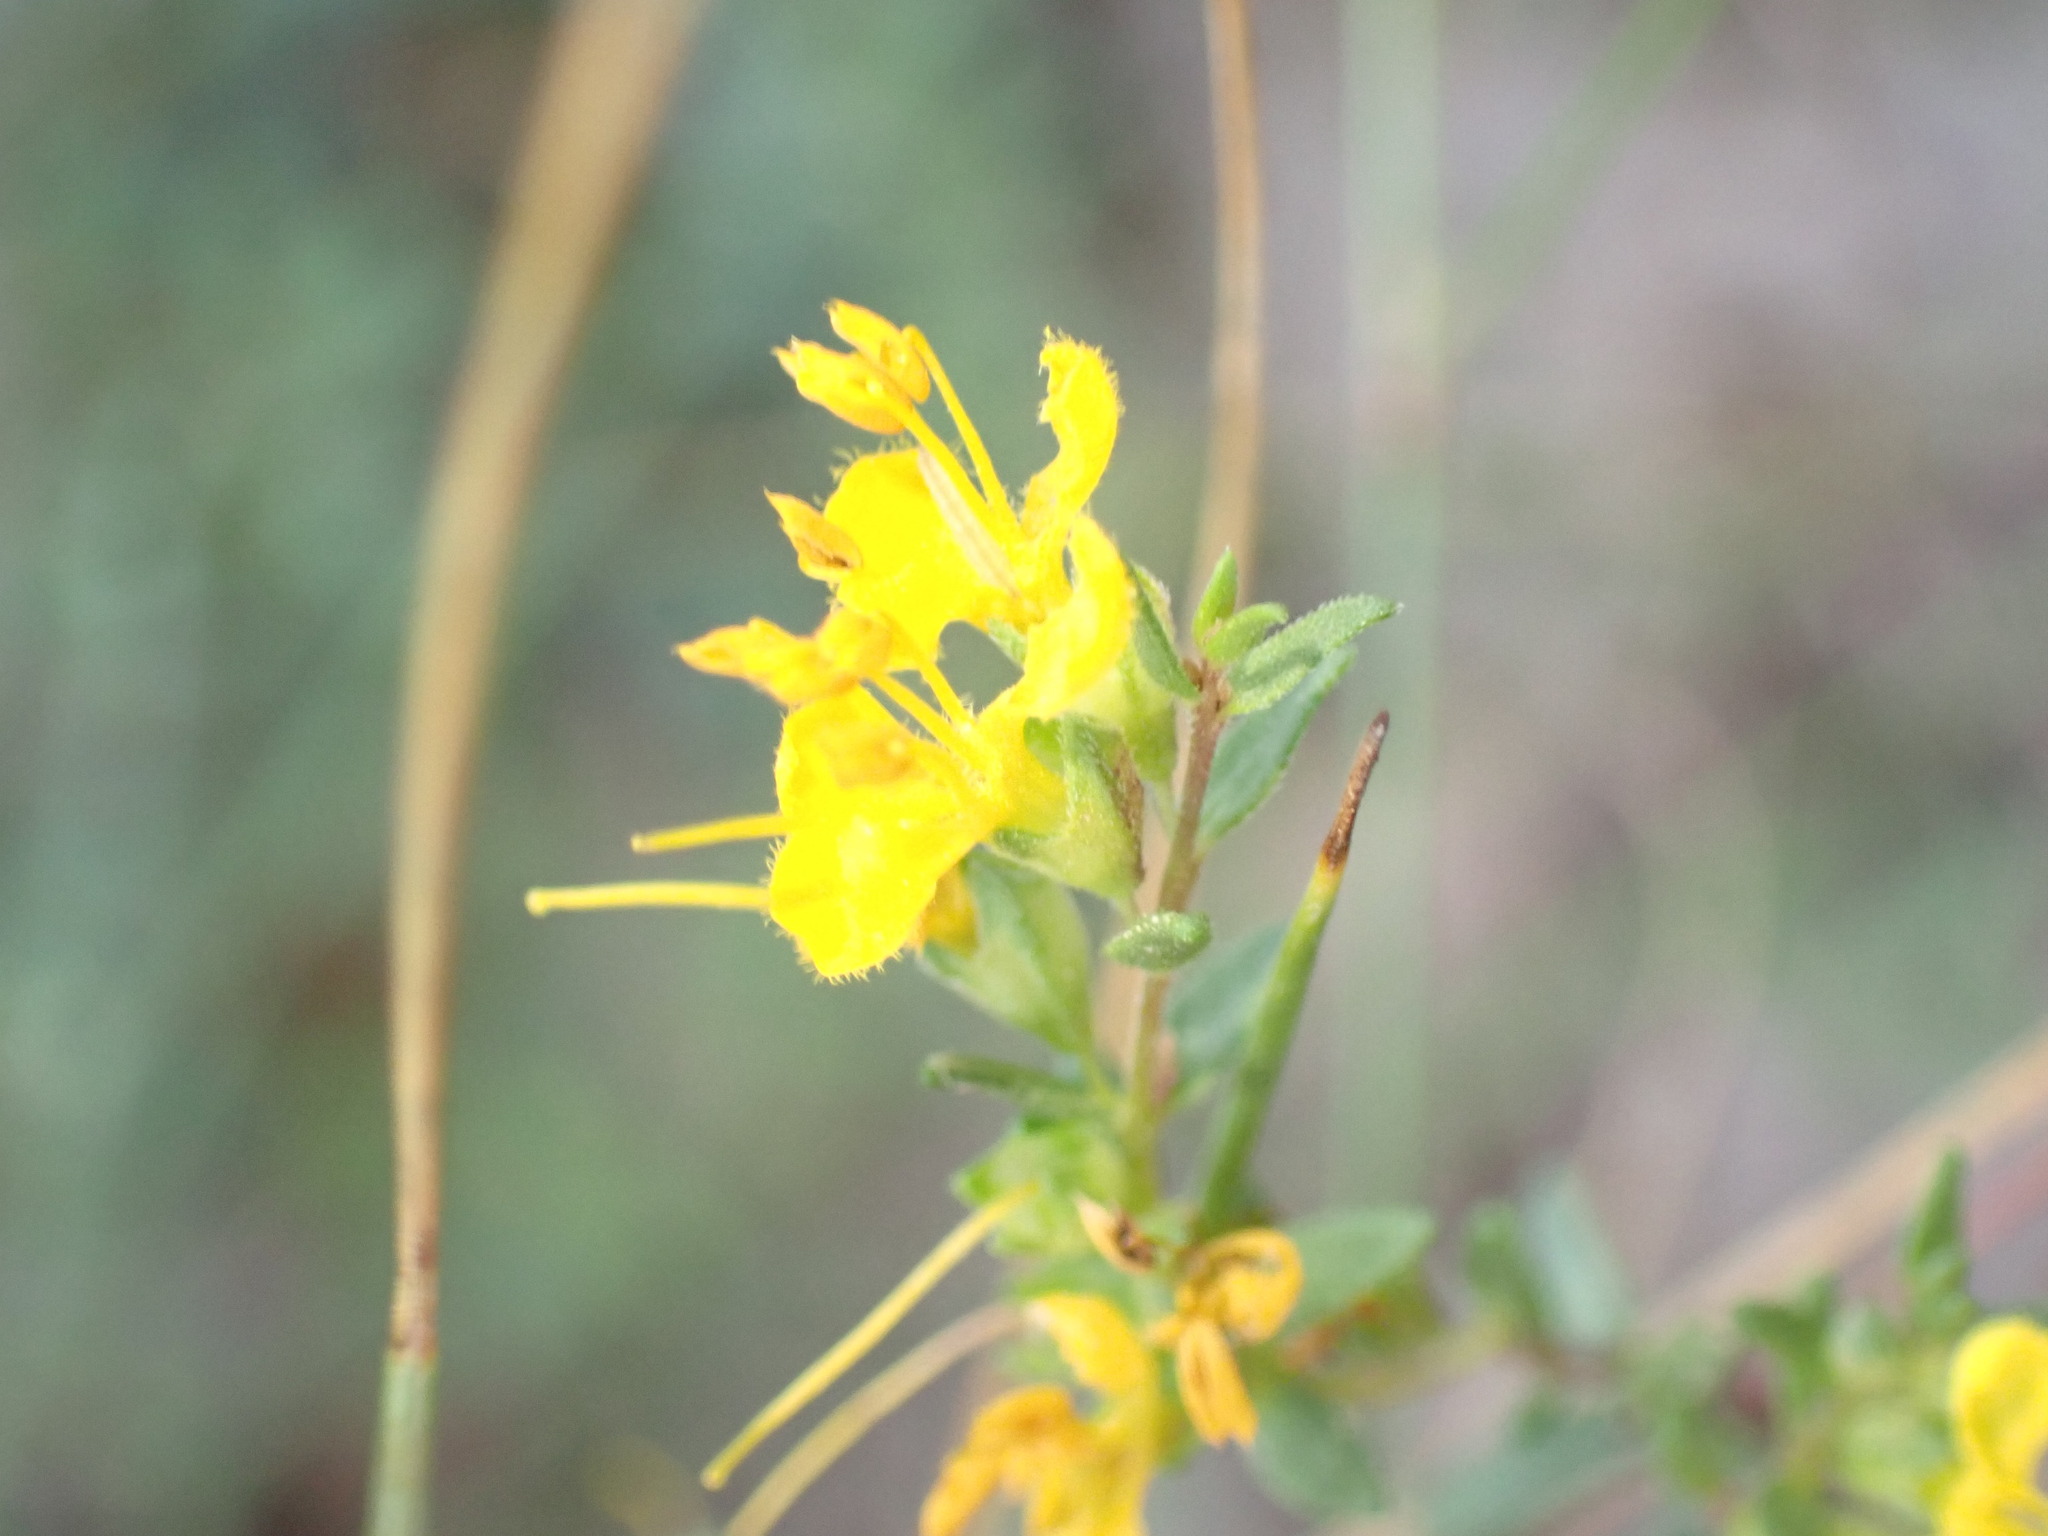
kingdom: Plantae
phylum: Tracheophyta
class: Magnoliopsida
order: Lamiales
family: Orobanchaceae
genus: Odontites
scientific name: Odontites luteus
